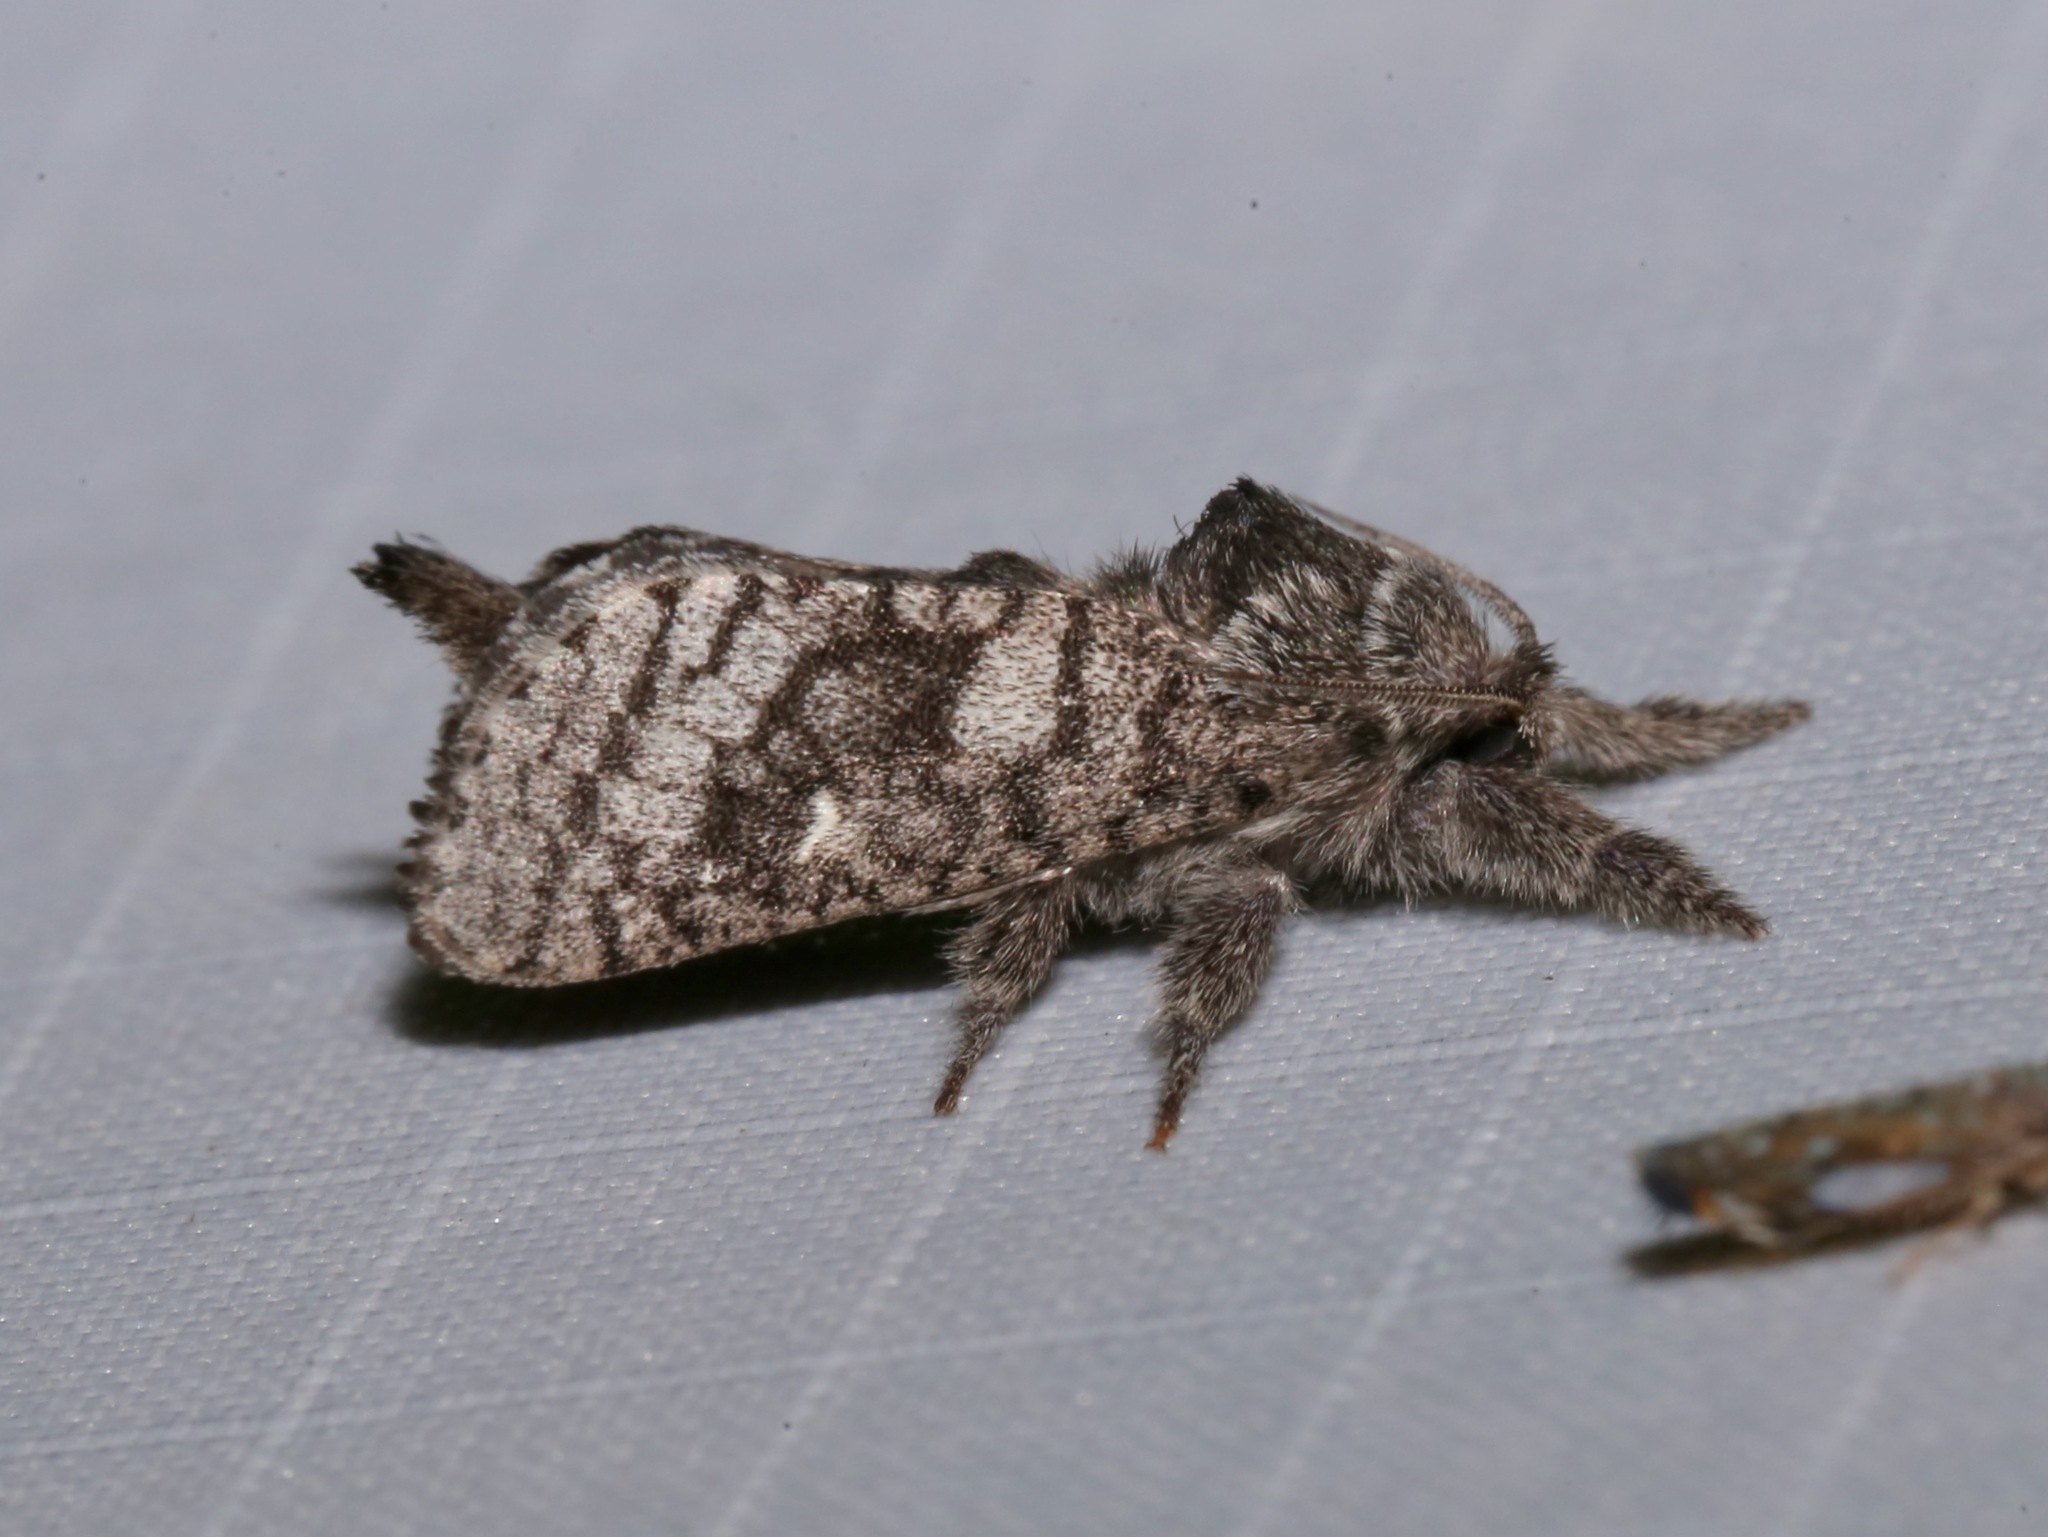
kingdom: Animalia
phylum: Arthropoda
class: Insecta
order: Lepidoptera
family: Cossidae
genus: Givira
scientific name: Givira francesca
